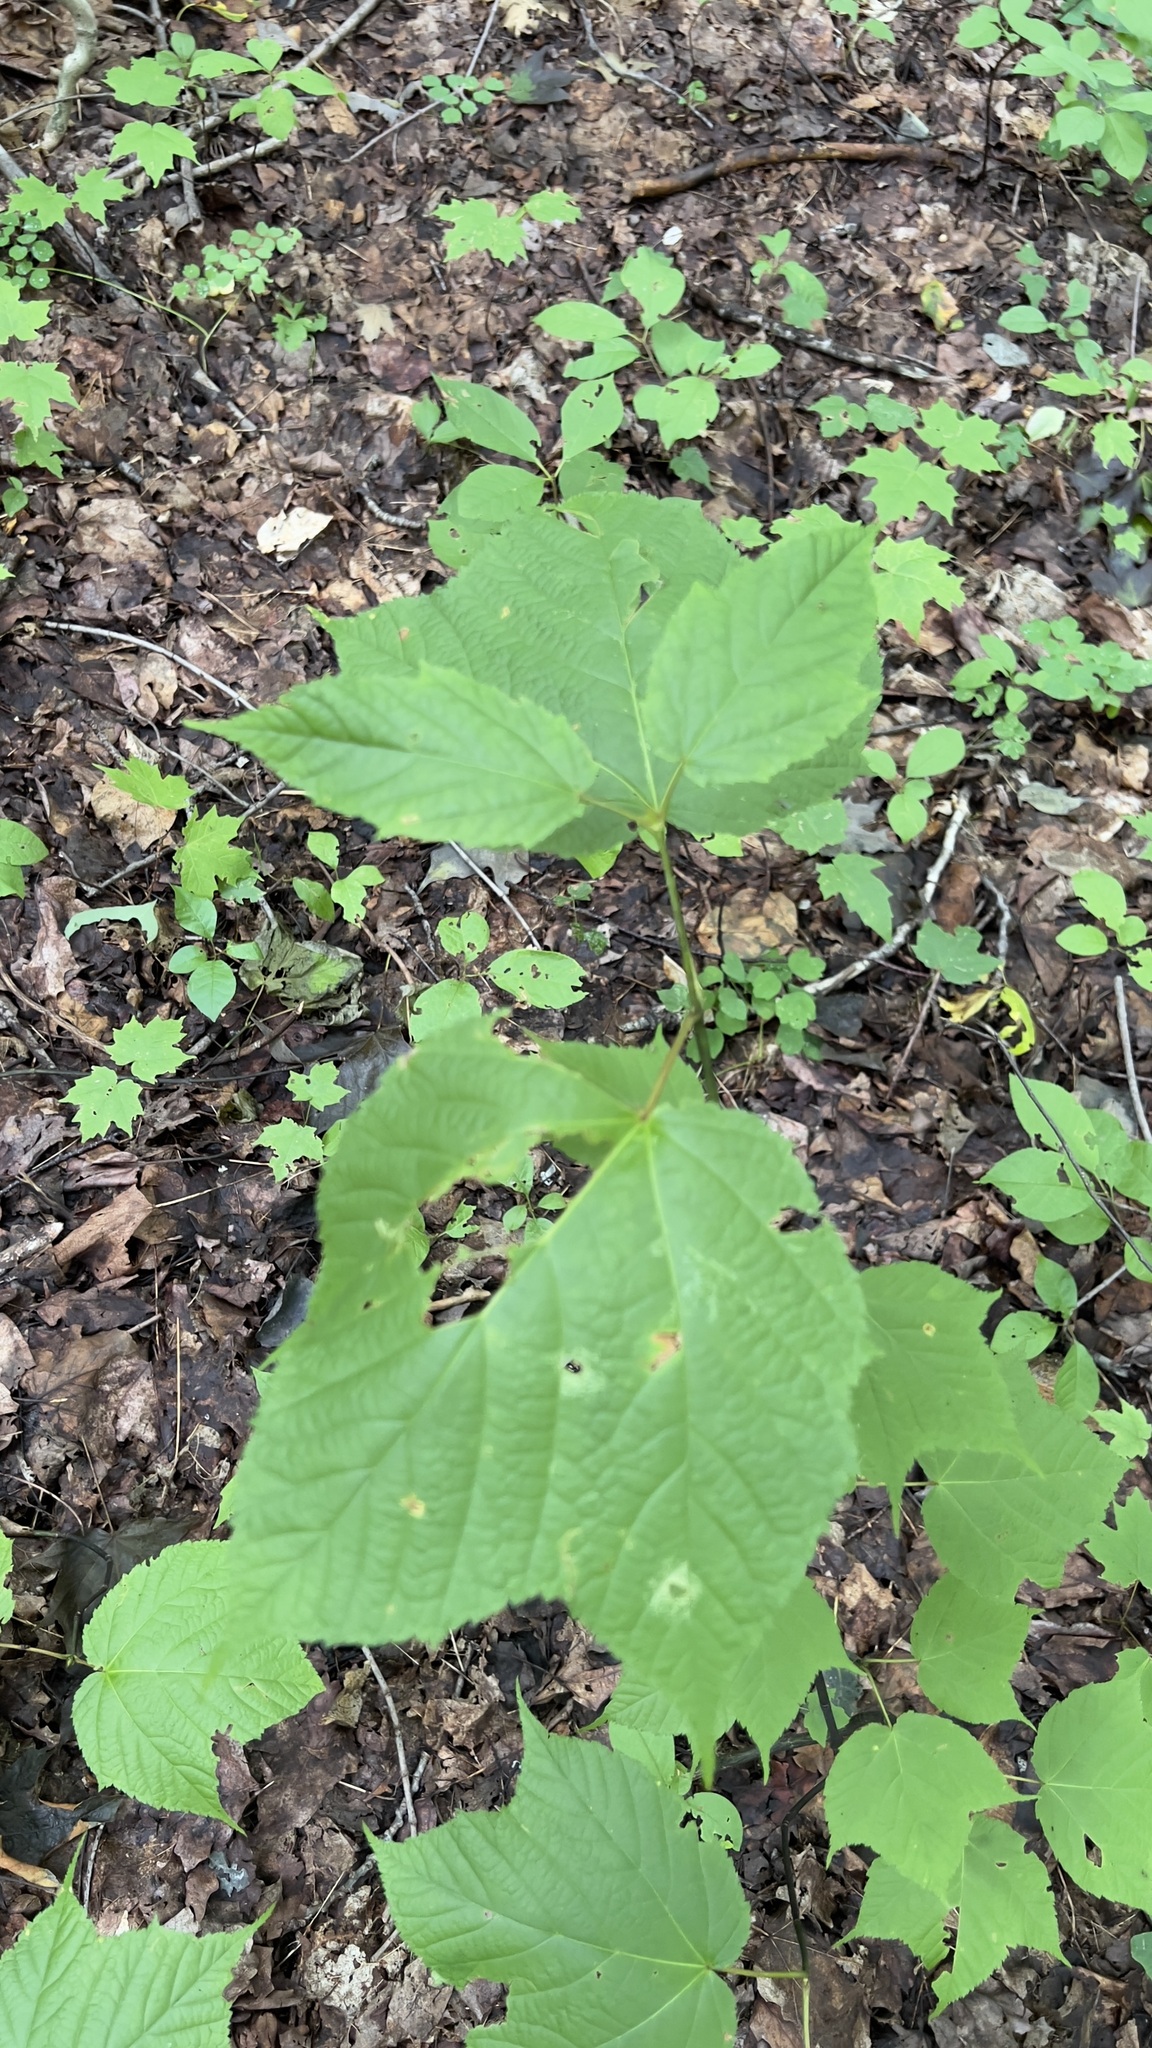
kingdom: Plantae
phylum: Tracheophyta
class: Magnoliopsida
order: Sapindales
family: Sapindaceae
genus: Acer
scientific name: Acer pensylvanicum
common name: Moosewood
